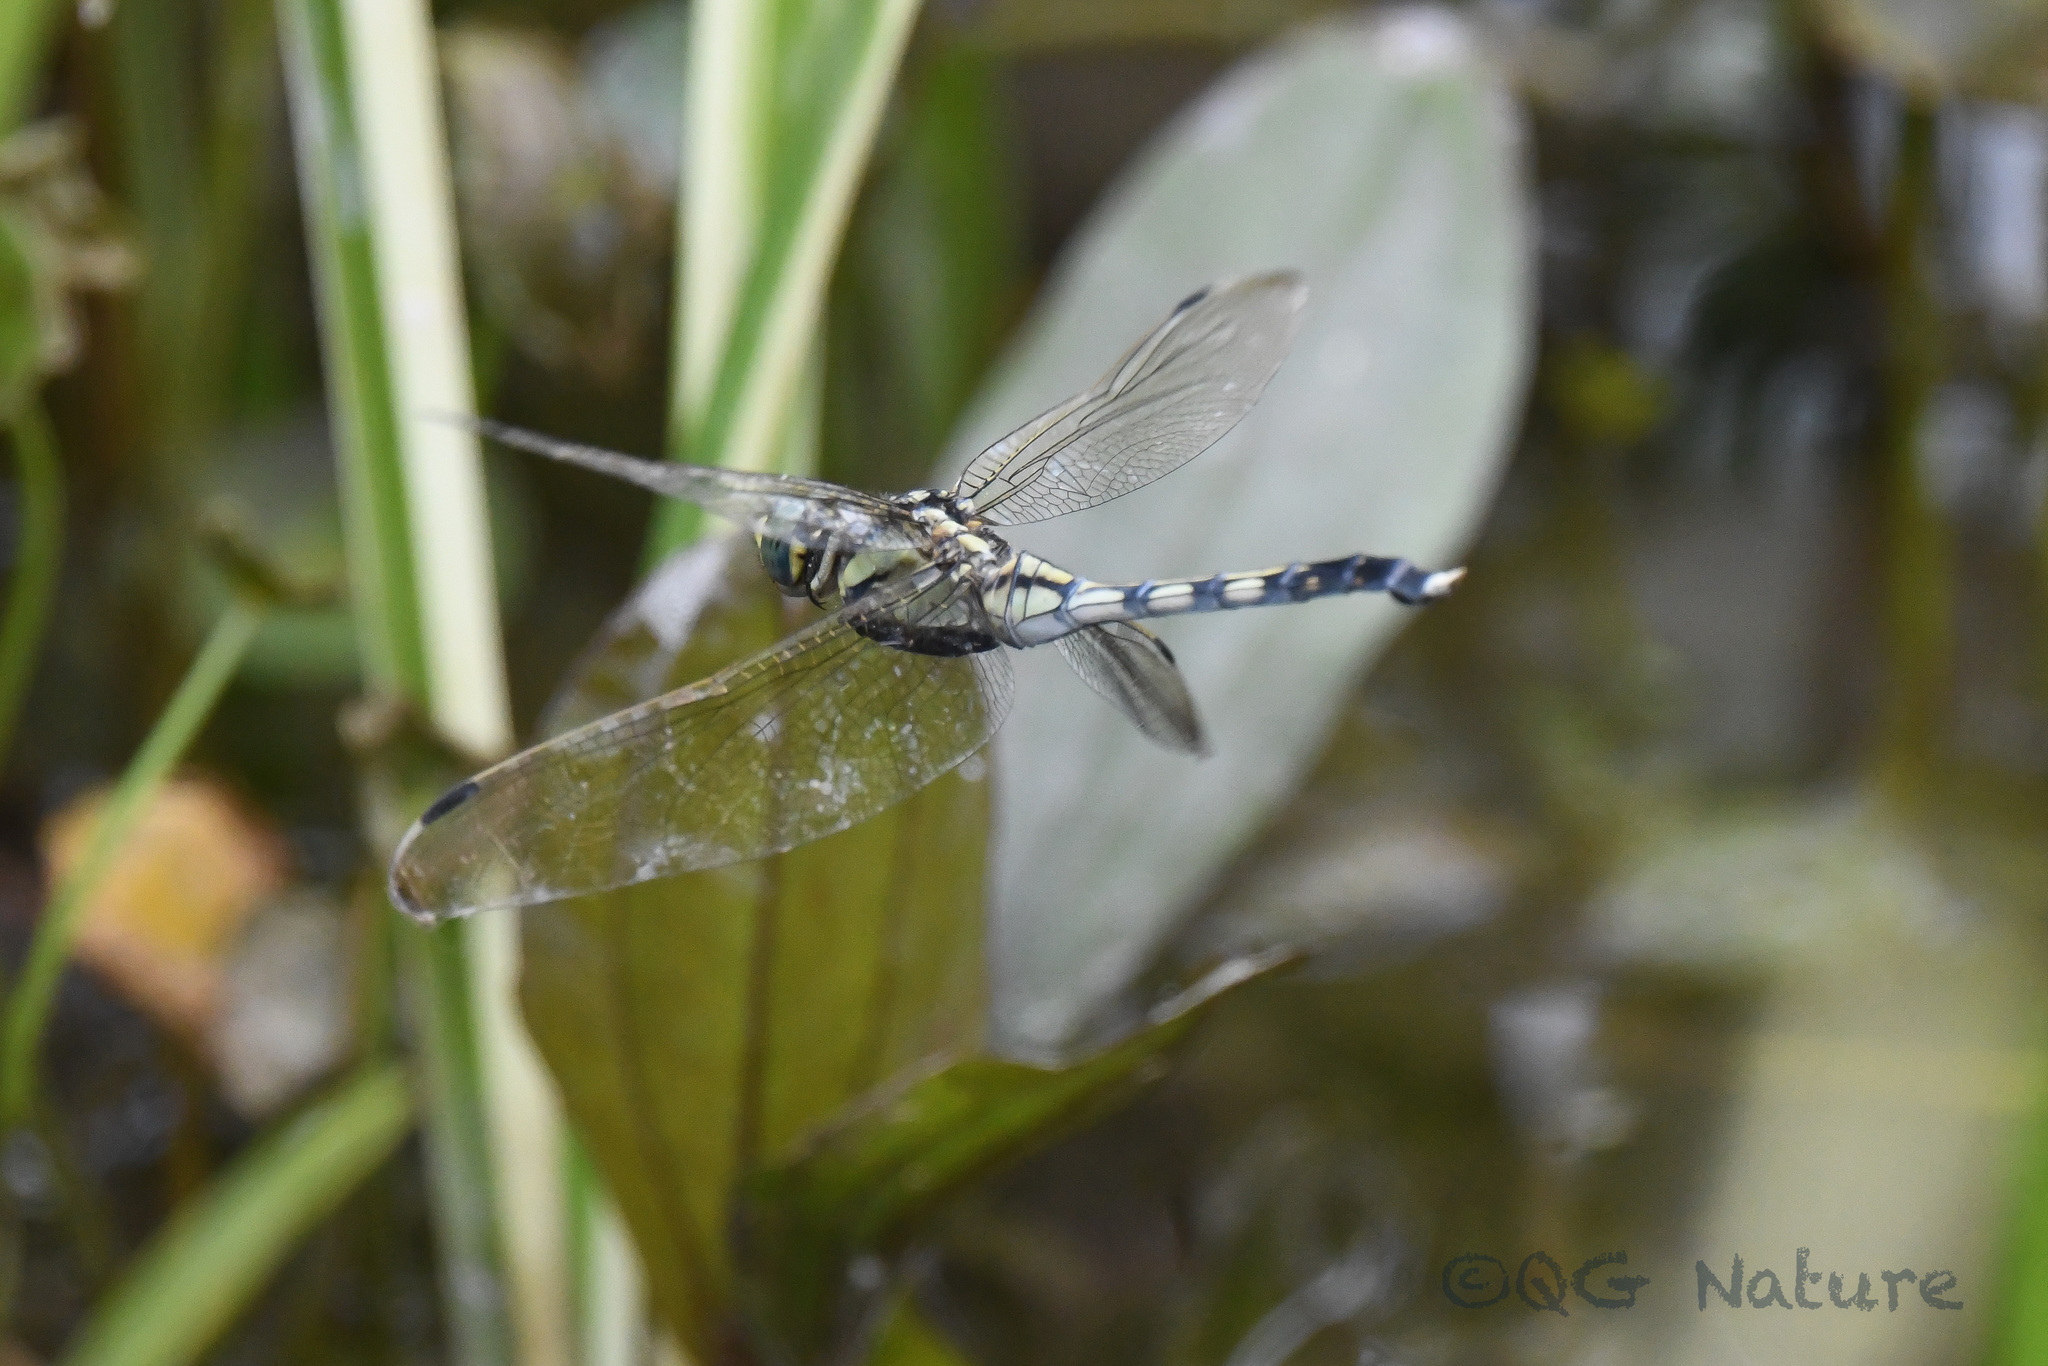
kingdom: Animalia
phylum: Arthropoda
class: Insecta
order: Odonata
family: Libellulidae
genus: Orthetrum
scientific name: Orthetrum albistylum
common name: White-tailed skimmer
